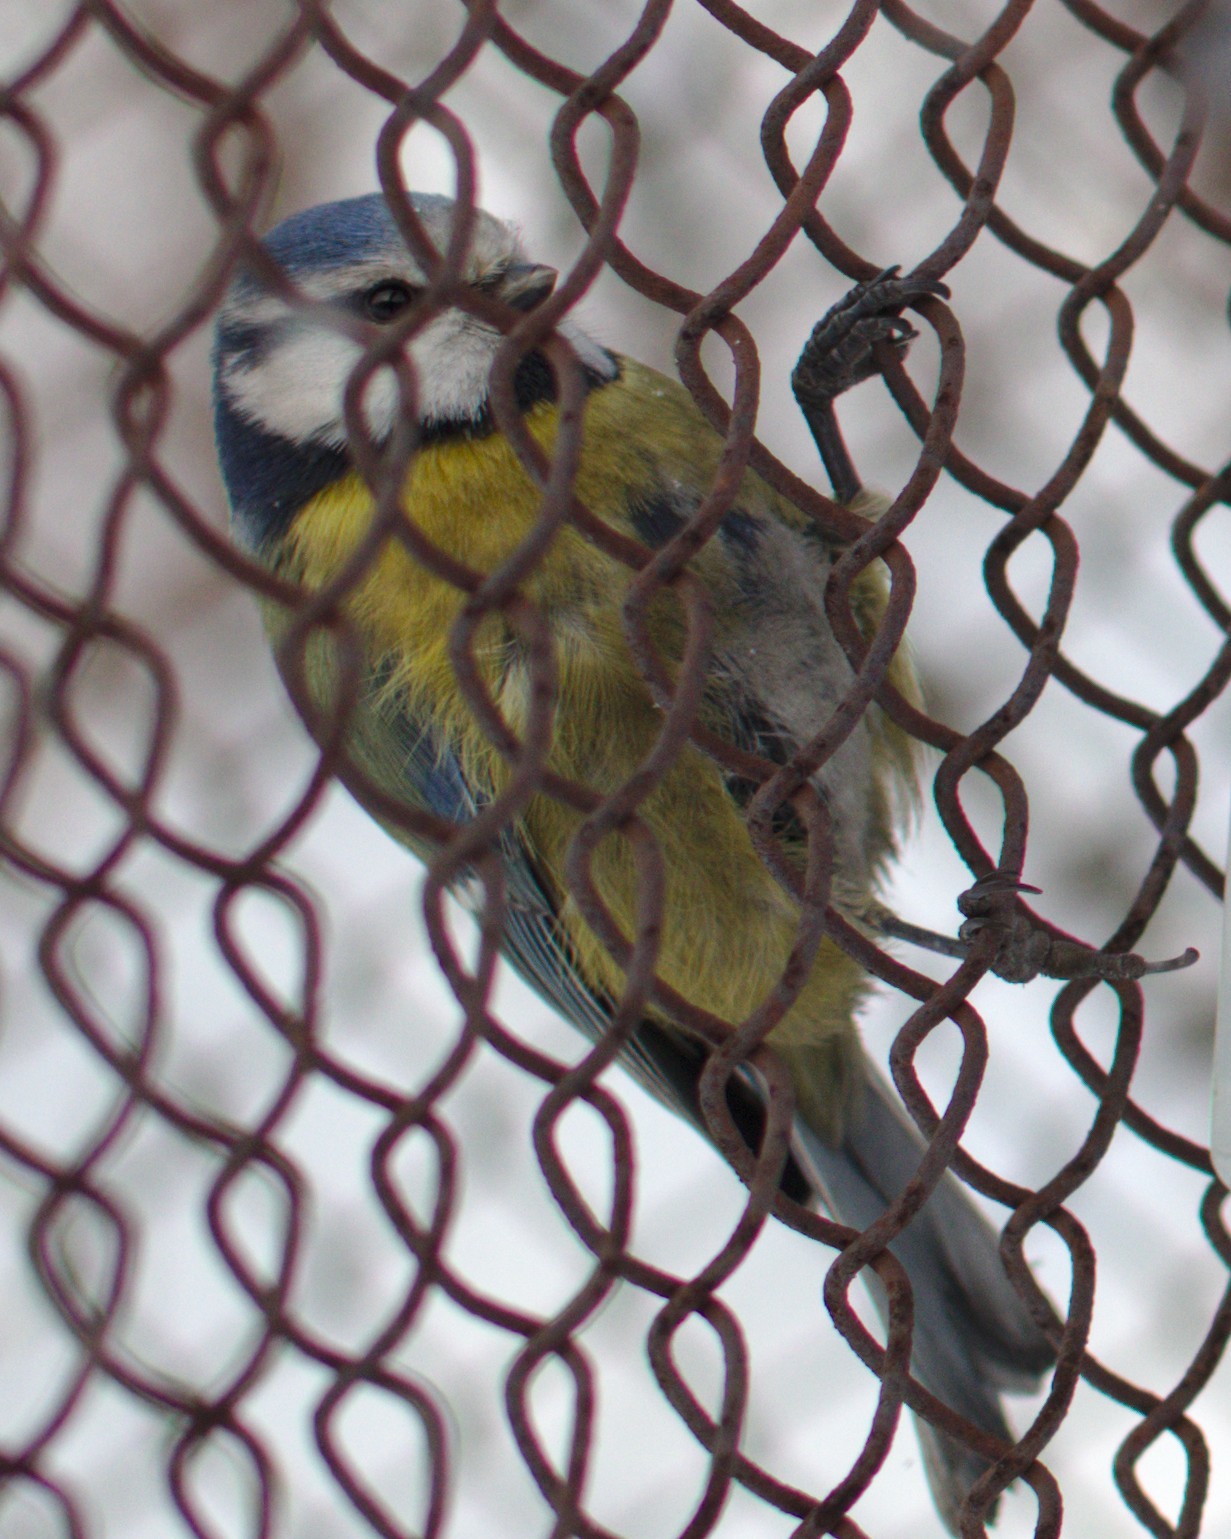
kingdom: Animalia
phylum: Chordata
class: Aves
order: Passeriformes
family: Paridae
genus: Cyanistes
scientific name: Cyanistes caeruleus
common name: Eurasian blue tit
